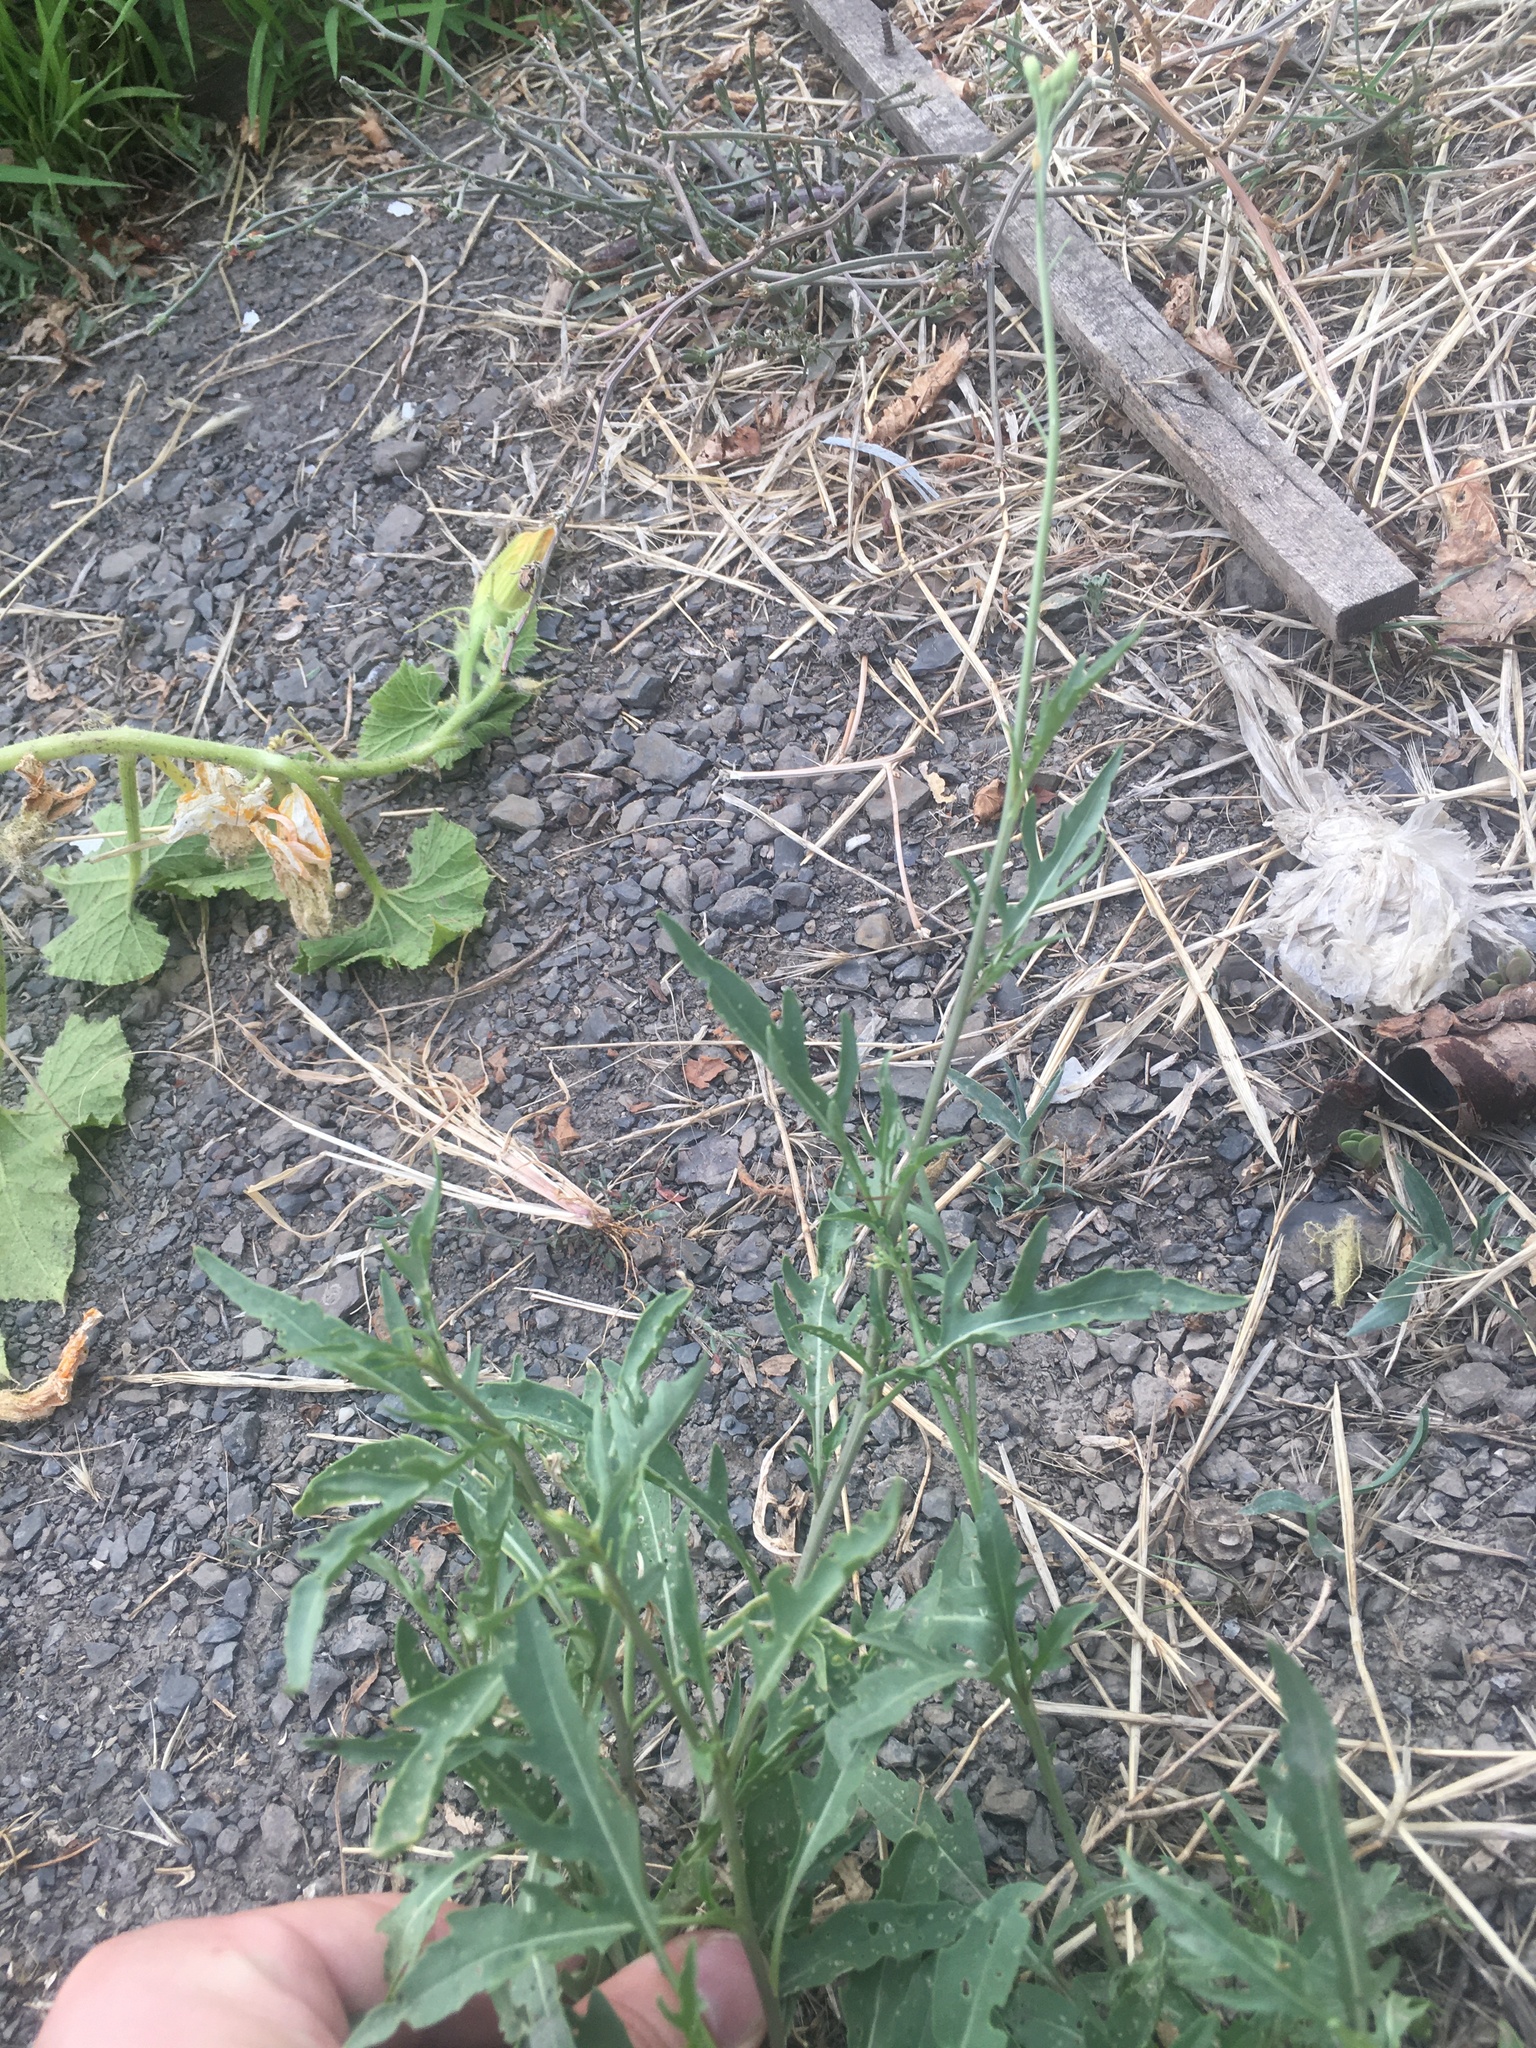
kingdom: Plantae
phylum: Tracheophyta
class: Magnoliopsida
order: Brassicales
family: Brassicaceae
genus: Diplotaxis
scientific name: Diplotaxis tenuifolia
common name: Perennial wall-rocket
